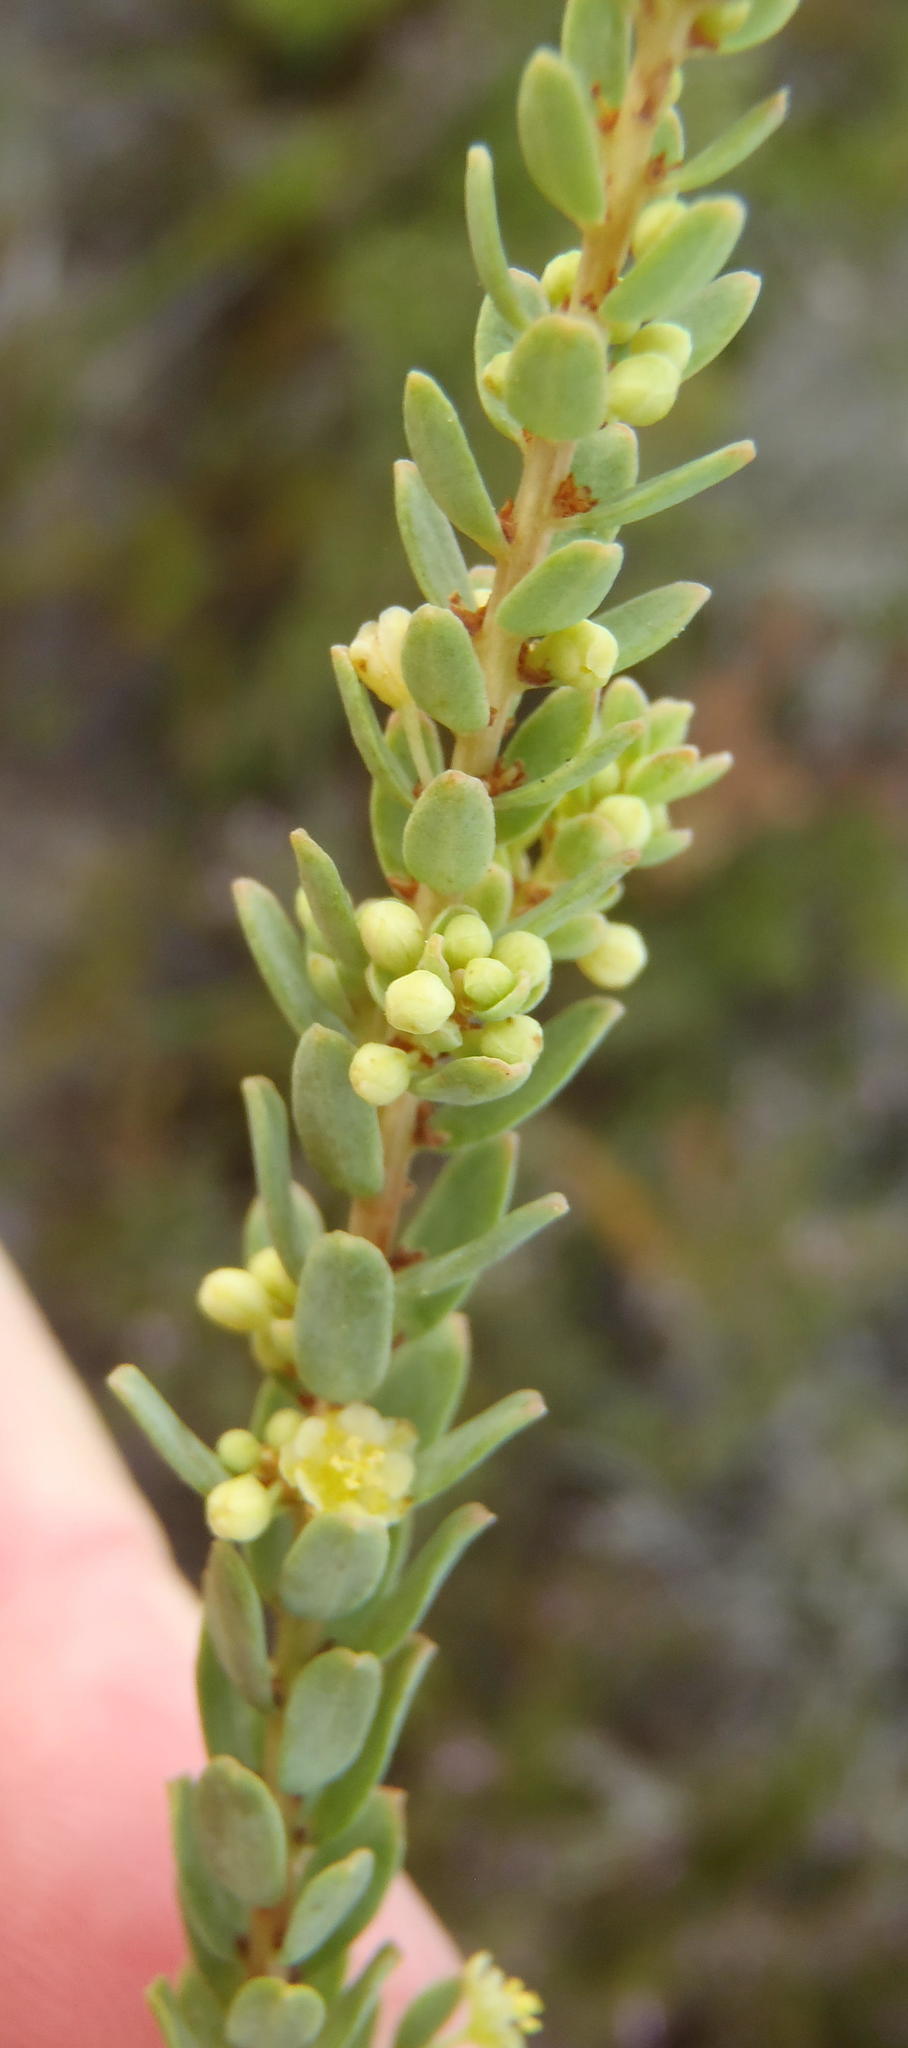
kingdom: Plantae
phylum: Tracheophyta
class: Magnoliopsida
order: Malpighiales
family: Peraceae
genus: Clutia
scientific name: Clutia laxa
